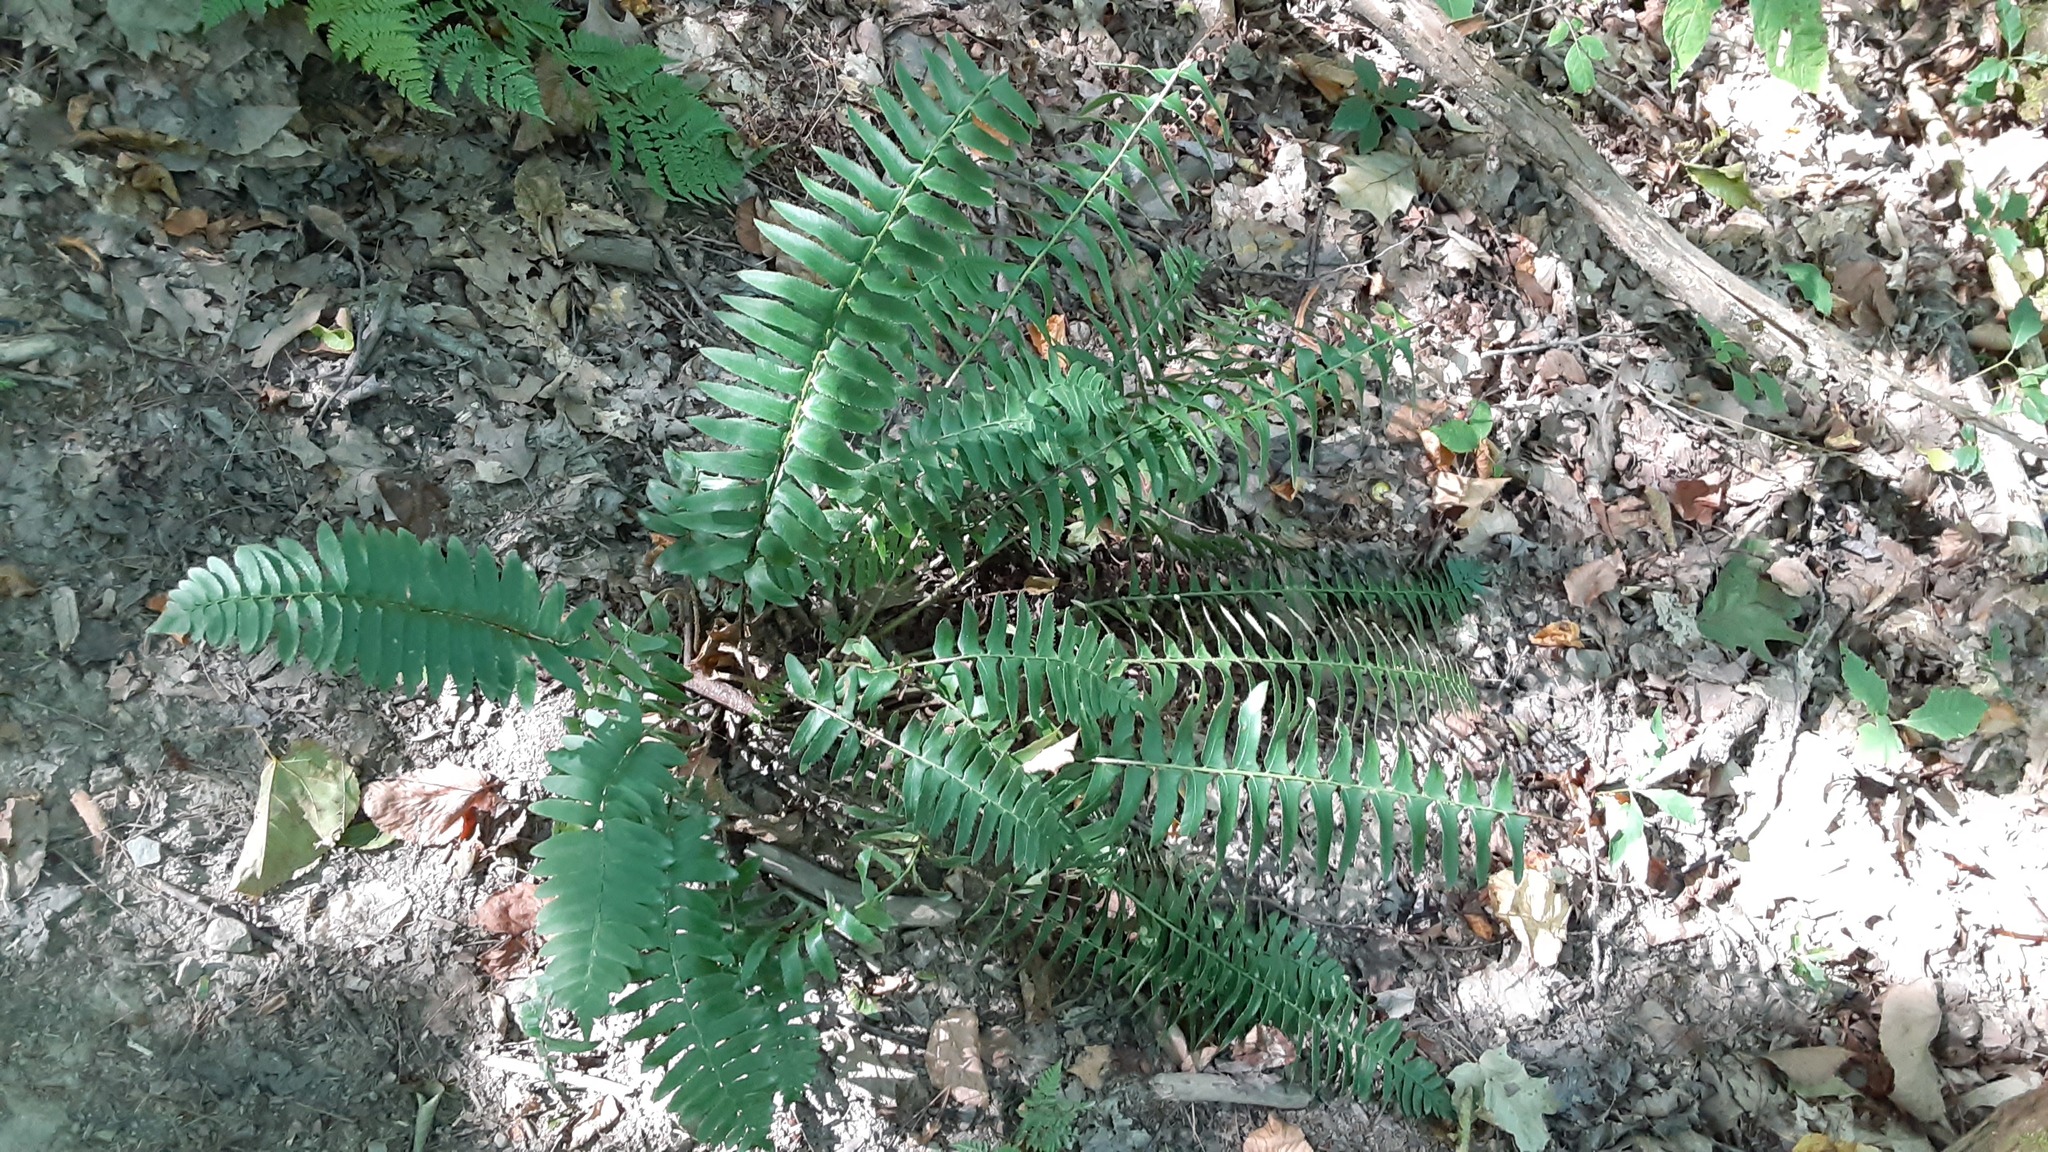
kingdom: Plantae
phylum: Tracheophyta
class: Polypodiopsida
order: Polypodiales
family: Dryopteridaceae
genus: Polystichum
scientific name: Polystichum acrostichoides
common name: Christmas fern
